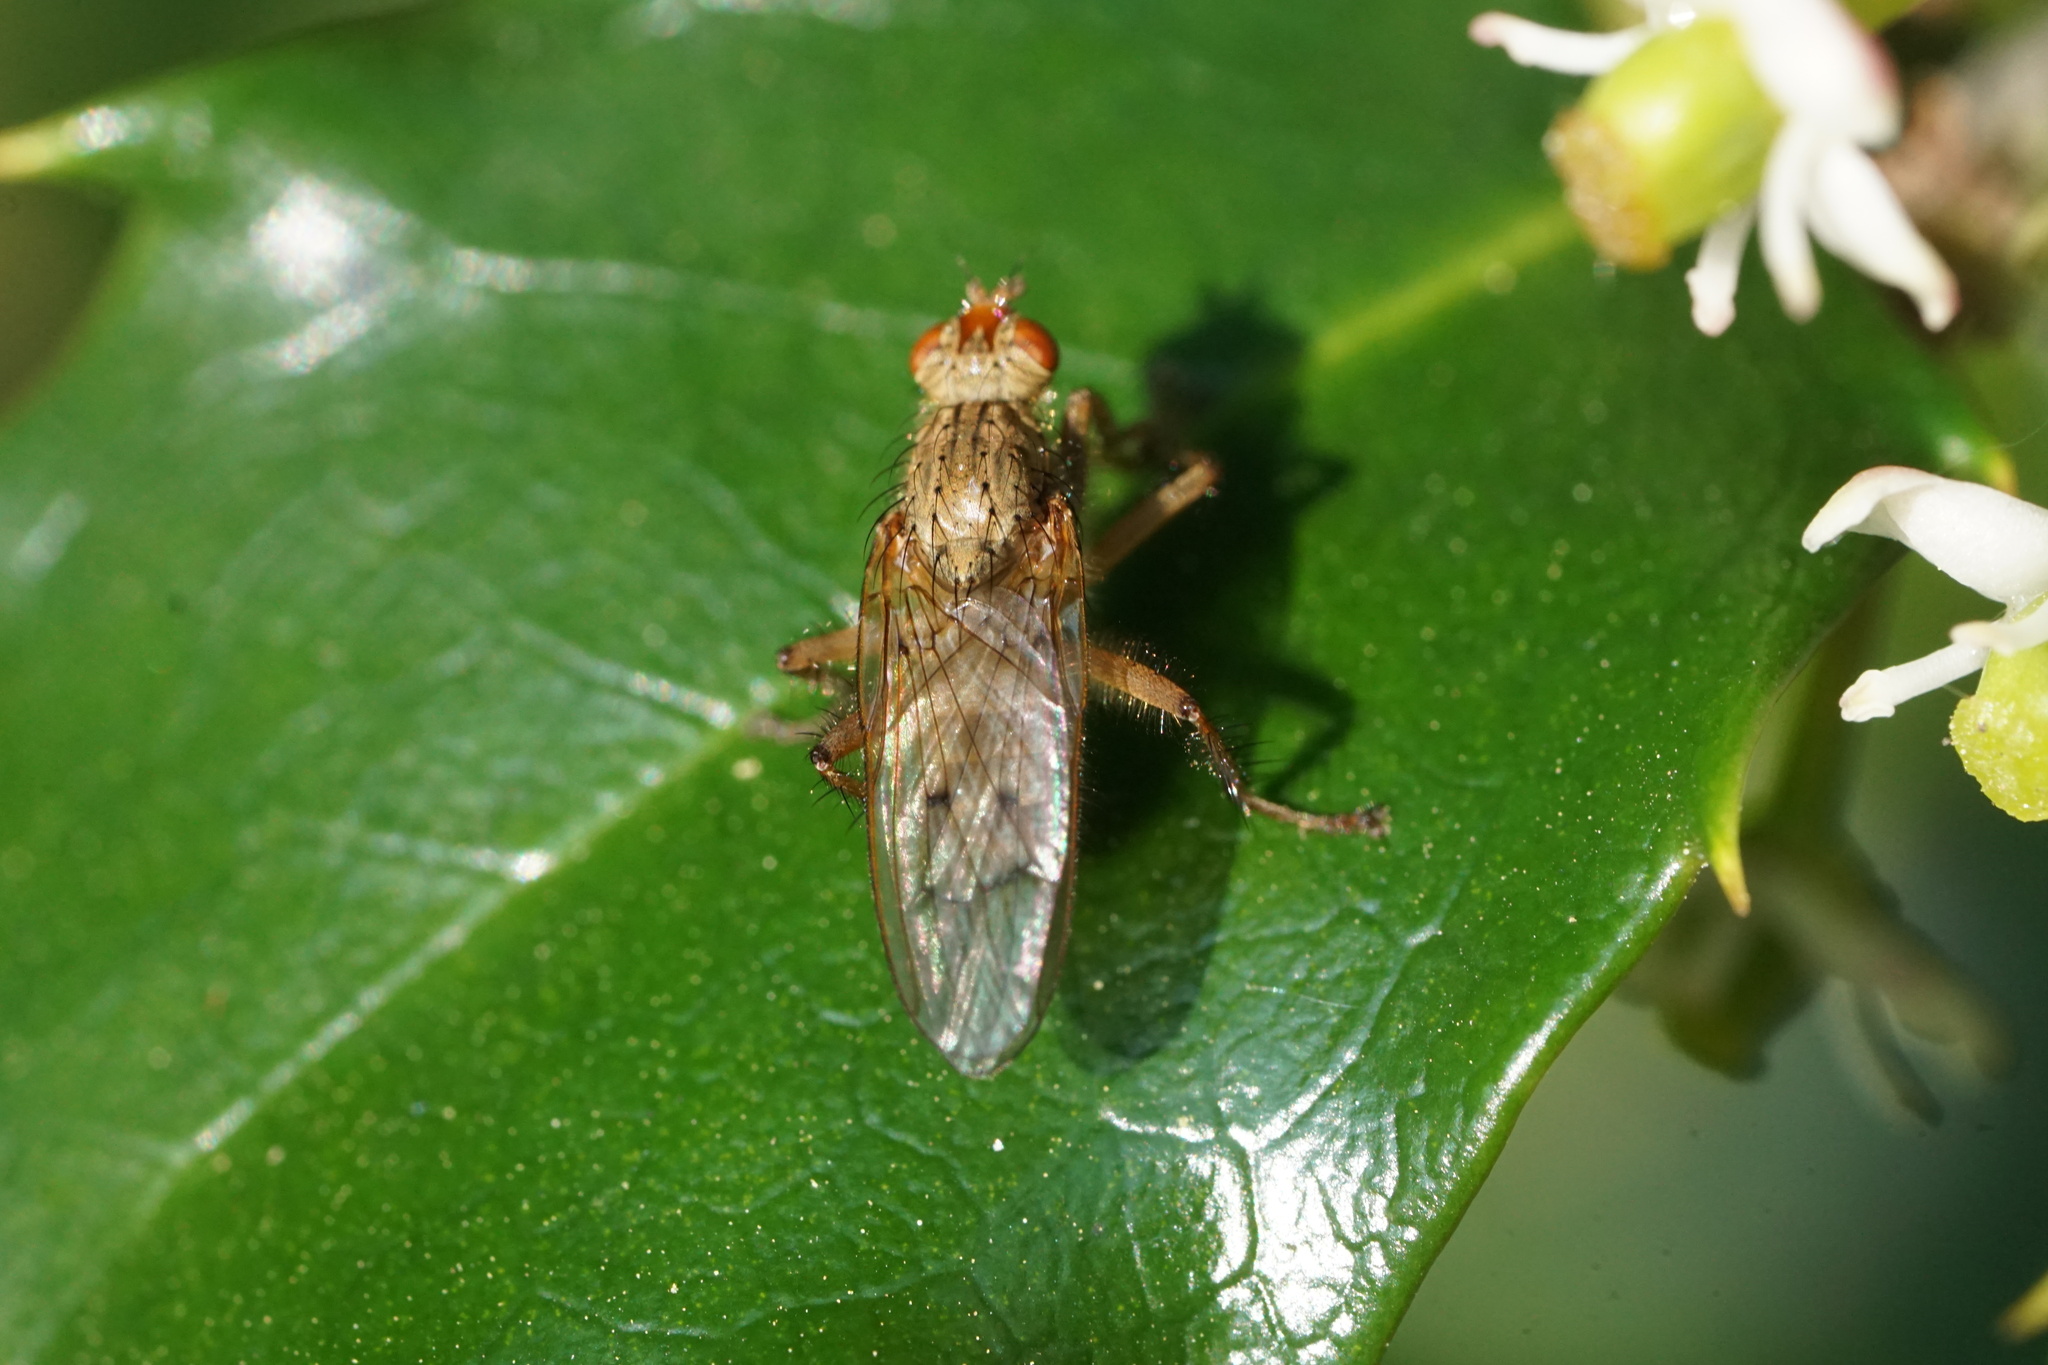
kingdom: Animalia
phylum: Arthropoda
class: Insecta
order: Diptera
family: Scathophagidae
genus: Scathophaga
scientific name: Scathophaga furcata
